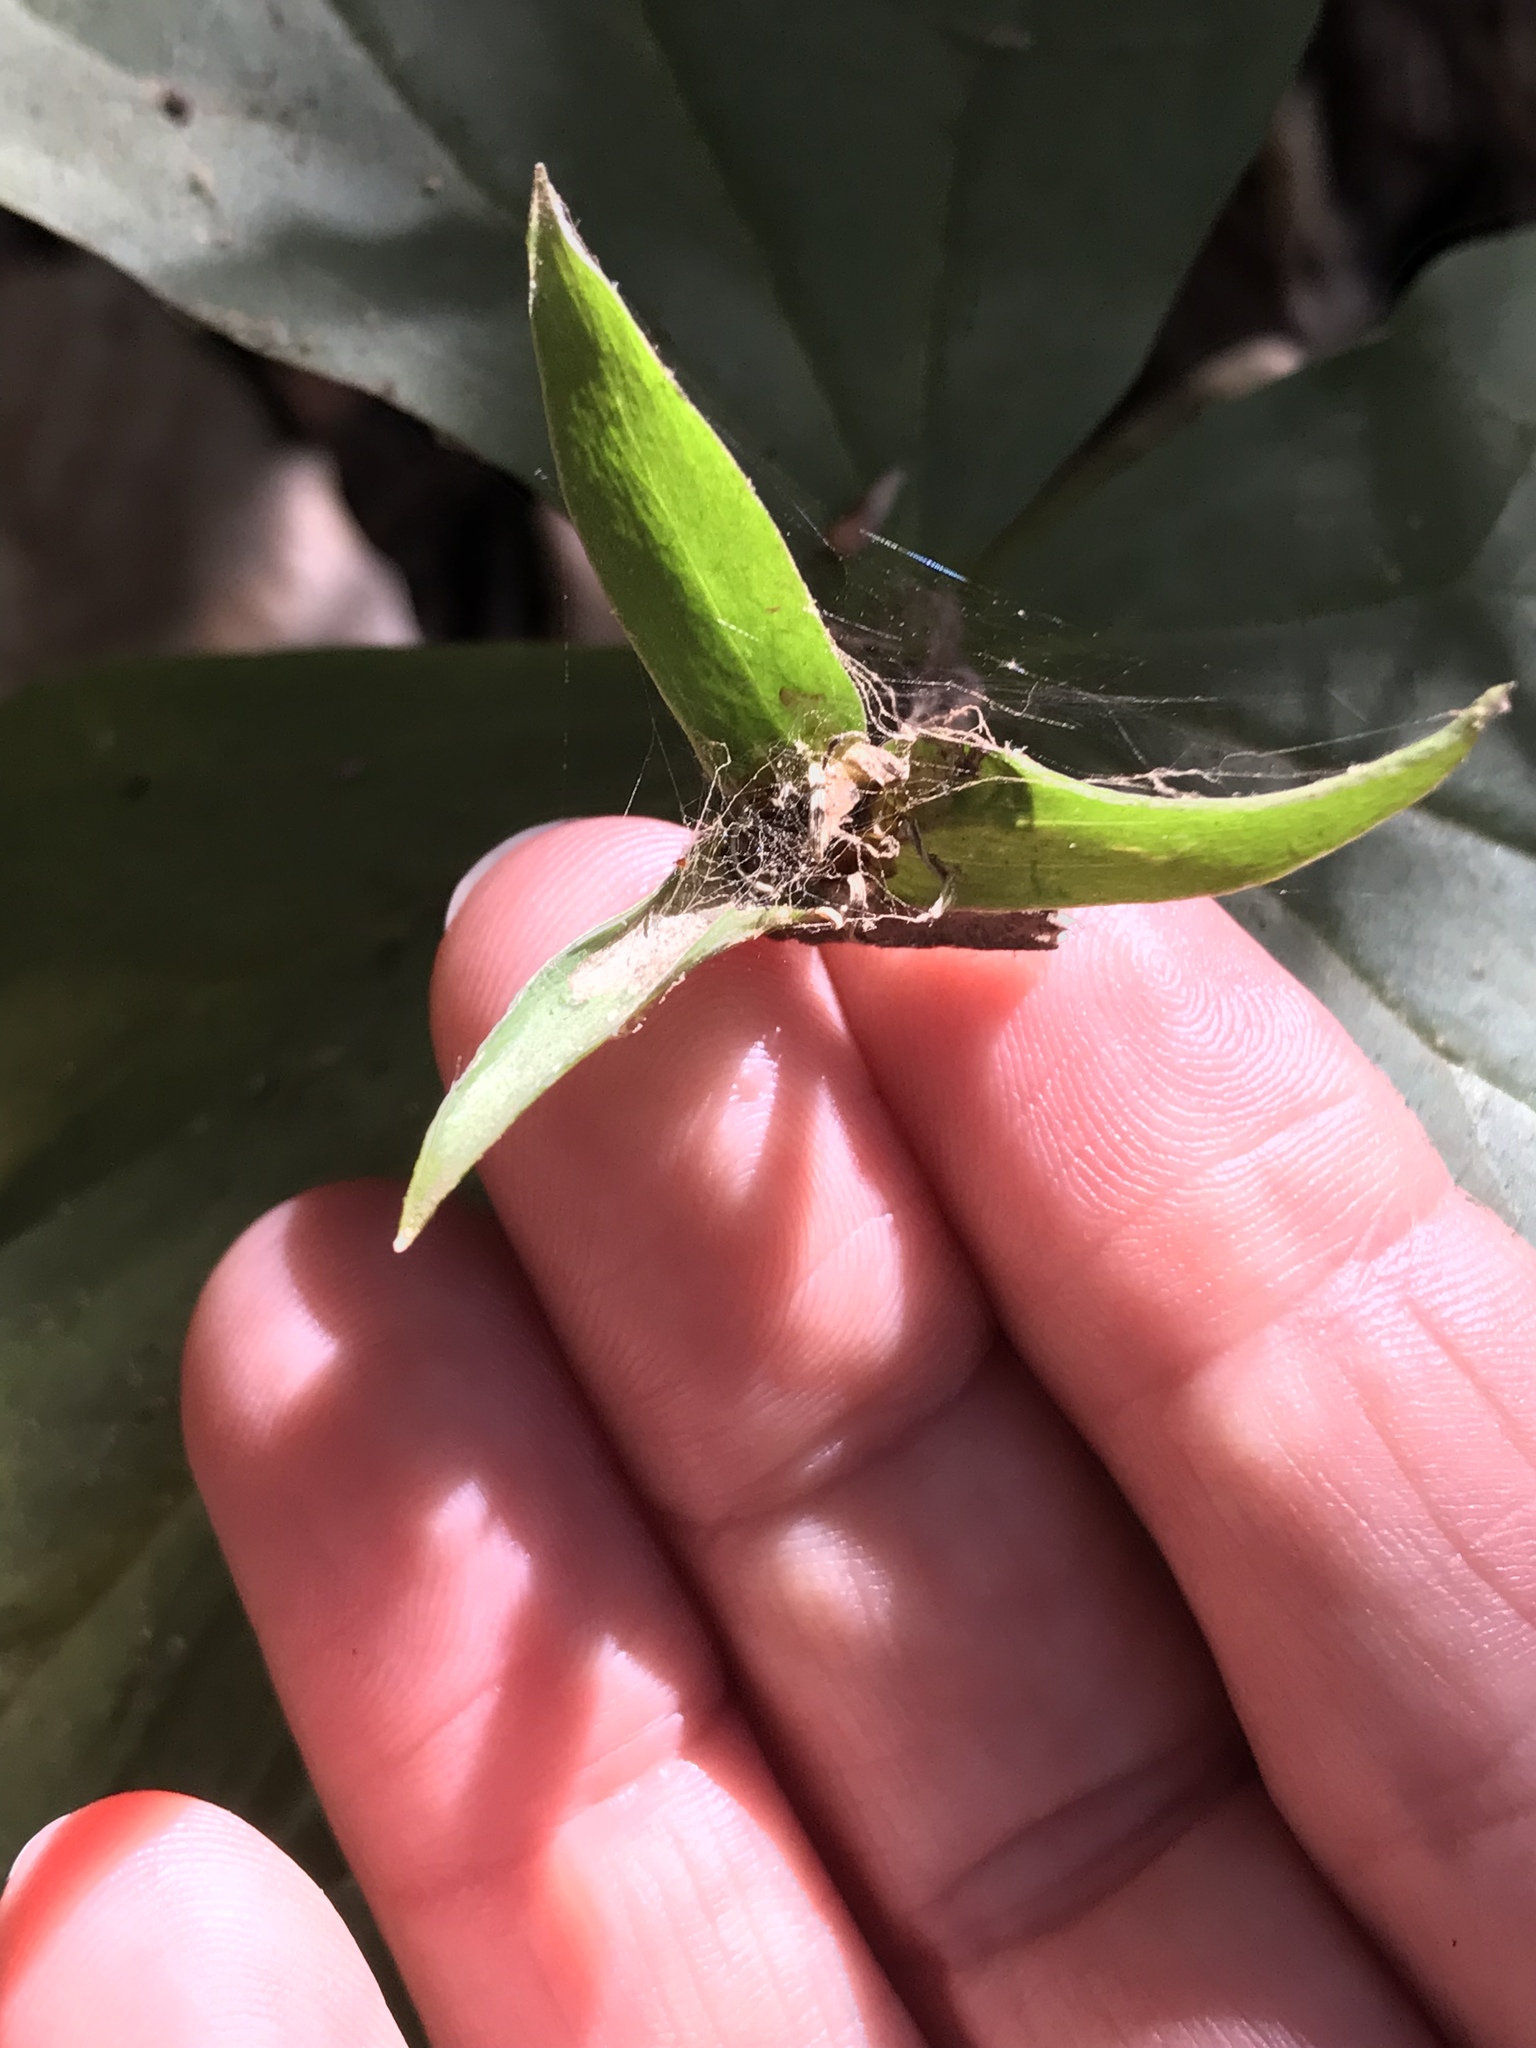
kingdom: Plantae
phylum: Tracheophyta
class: Liliopsida
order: Liliales
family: Melanthiaceae
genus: Trillium
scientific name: Trillium ovatum
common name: Pacific trillium
